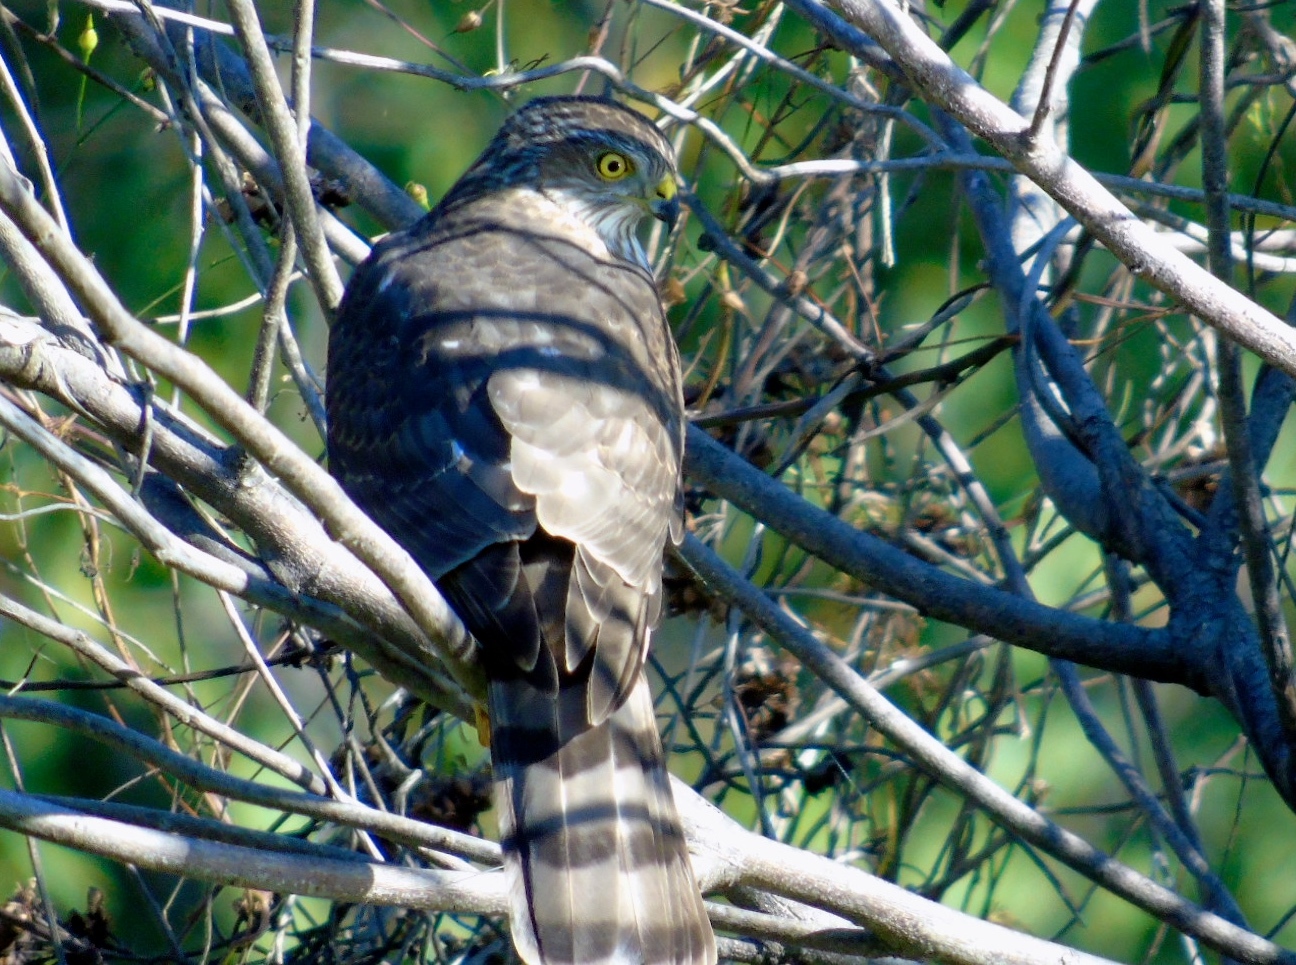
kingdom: Animalia
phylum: Chordata
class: Aves
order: Accipitriformes
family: Accipitridae
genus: Accipiter
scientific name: Accipiter striatus
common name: Sharp-shinned hawk
